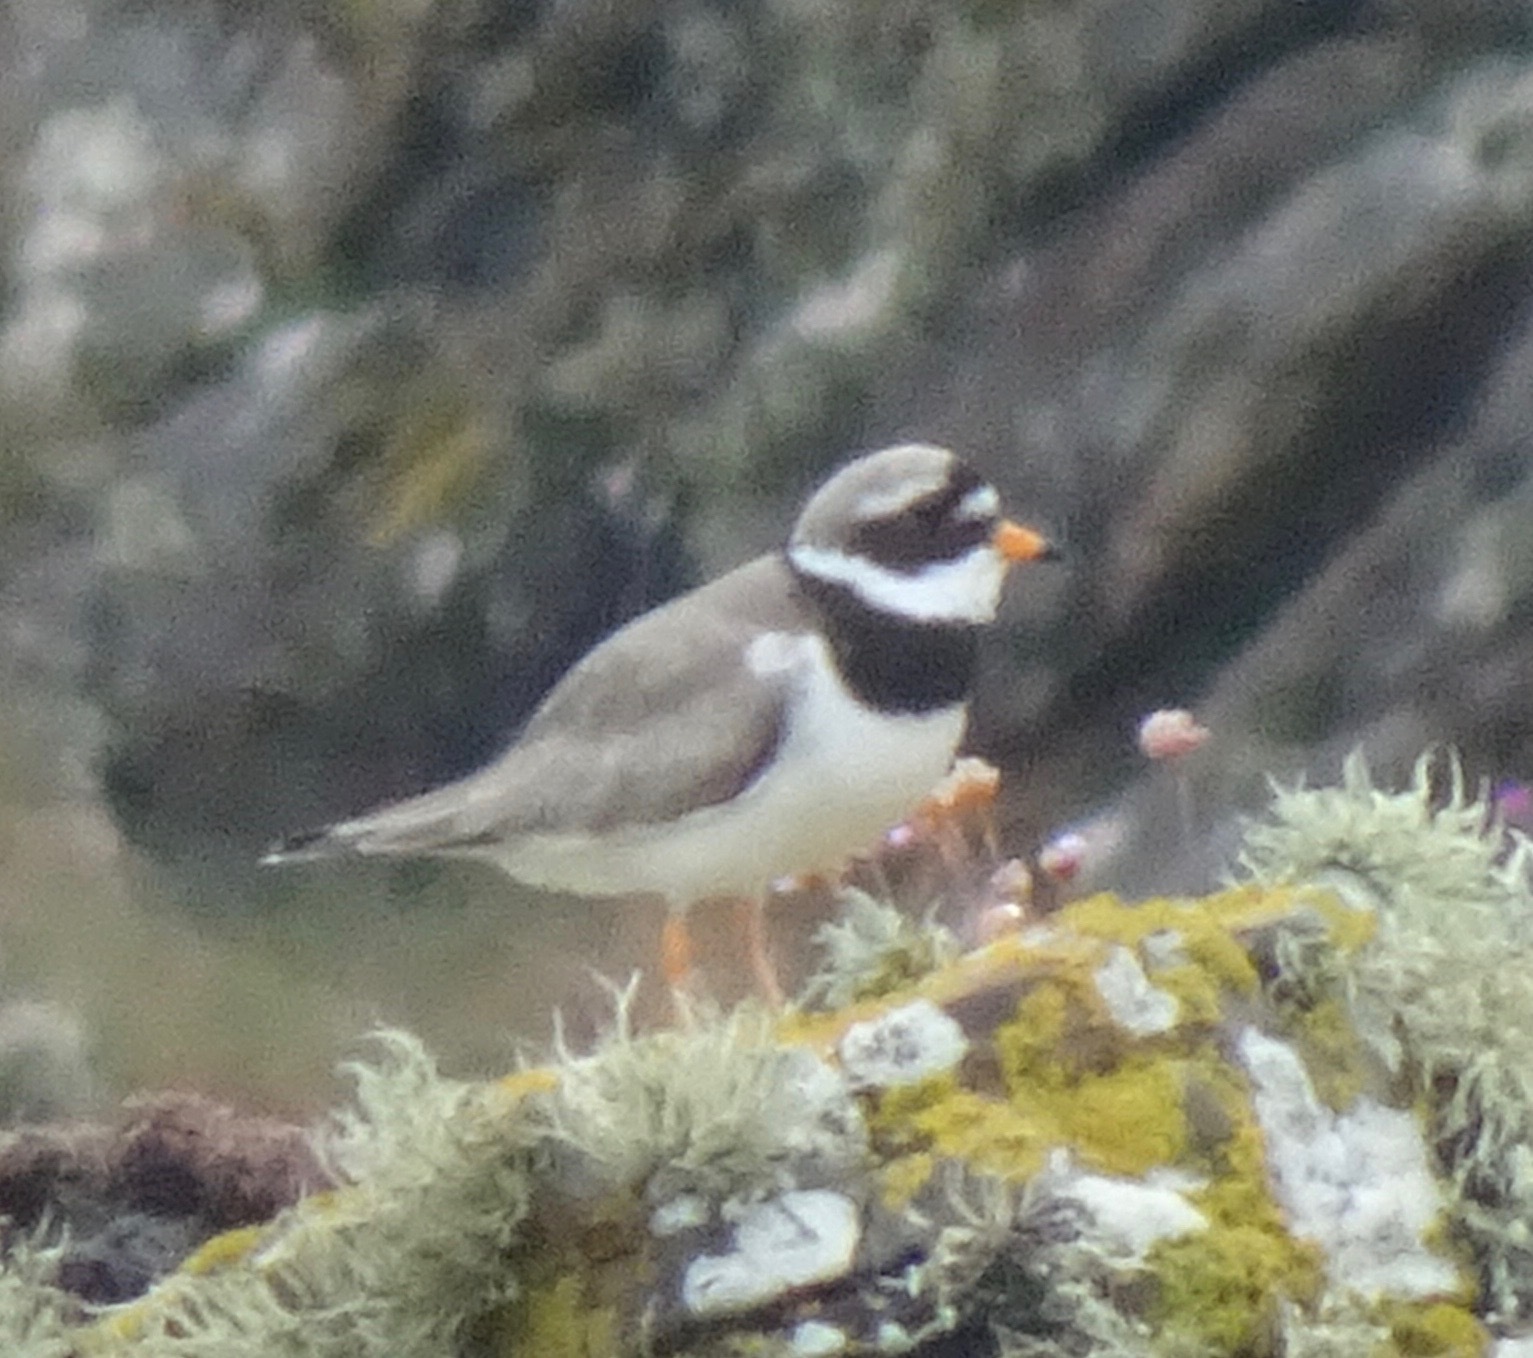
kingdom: Animalia
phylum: Chordata
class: Aves
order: Charadriiformes
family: Charadriidae
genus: Charadrius
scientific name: Charadrius hiaticula
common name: Common ringed plover
